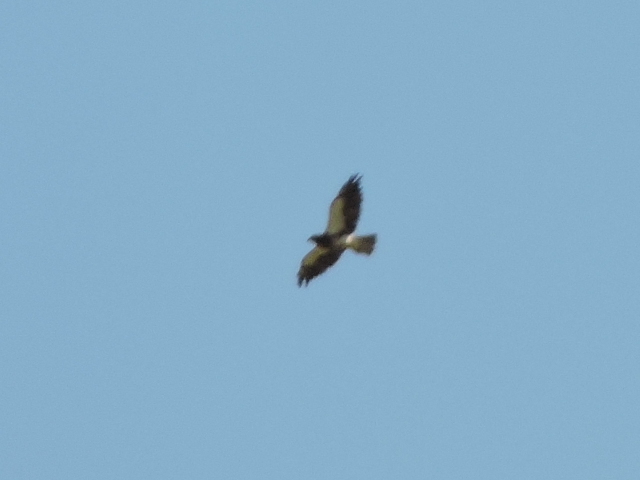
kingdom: Animalia
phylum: Chordata
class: Aves
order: Accipitriformes
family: Accipitridae
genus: Buteo
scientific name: Buteo swainsoni
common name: Swainson's hawk
